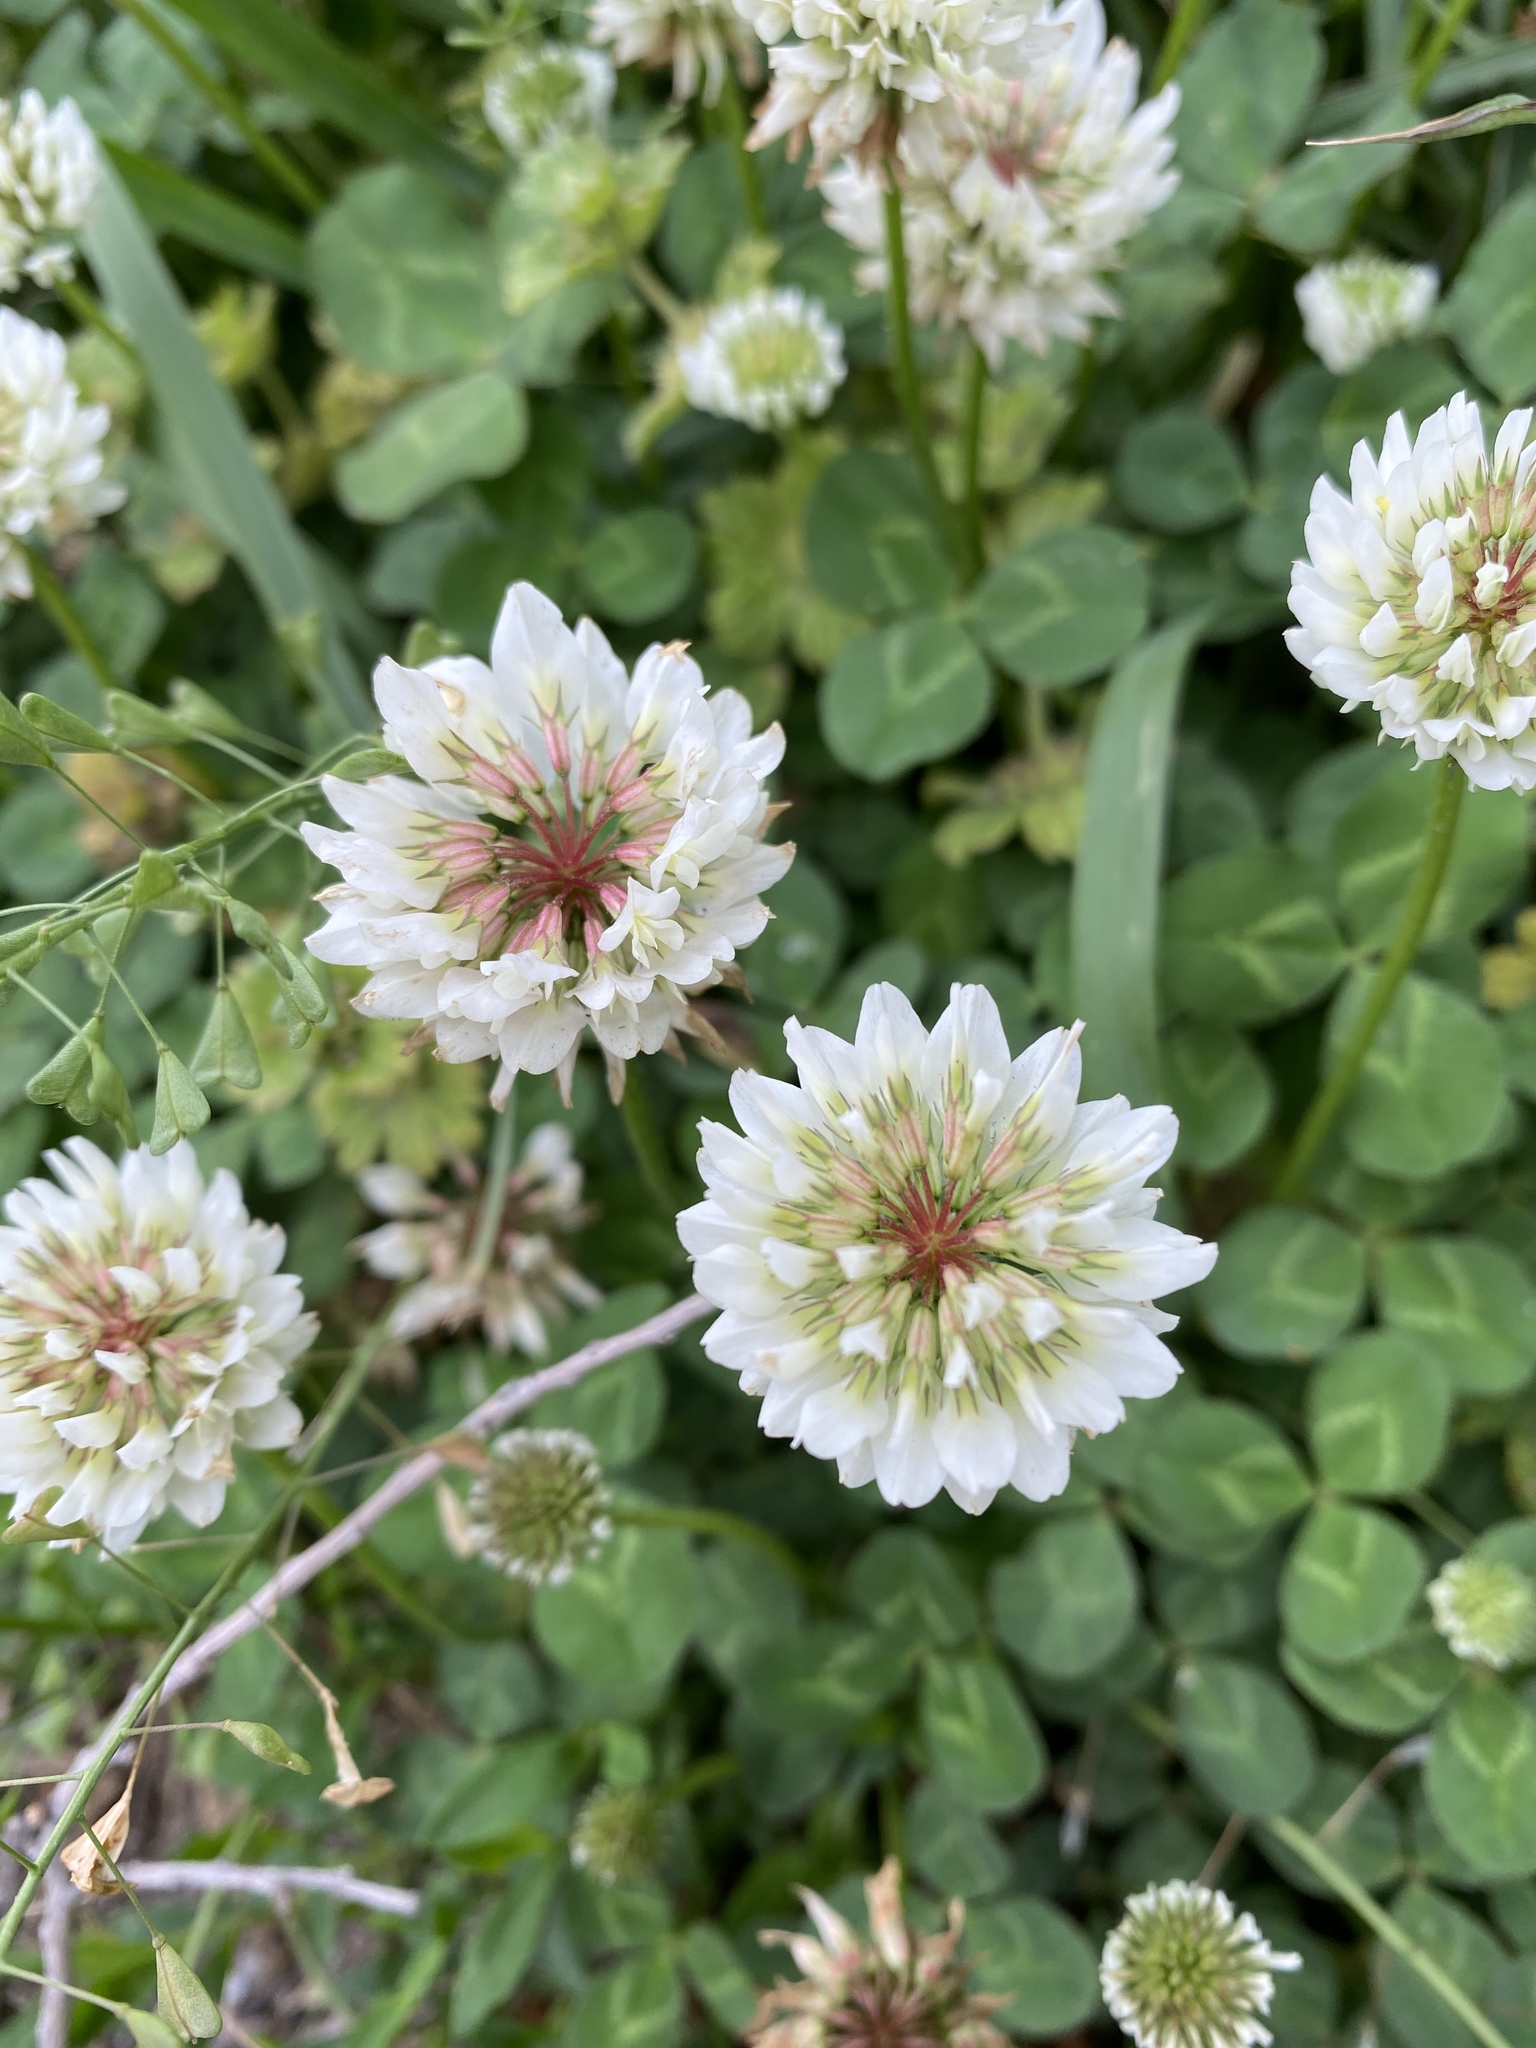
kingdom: Plantae
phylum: Tracheophyta
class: Magnoliopsida
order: Fabales
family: Fabaceae
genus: Trifolium
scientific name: Trifolium repens
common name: White clover
